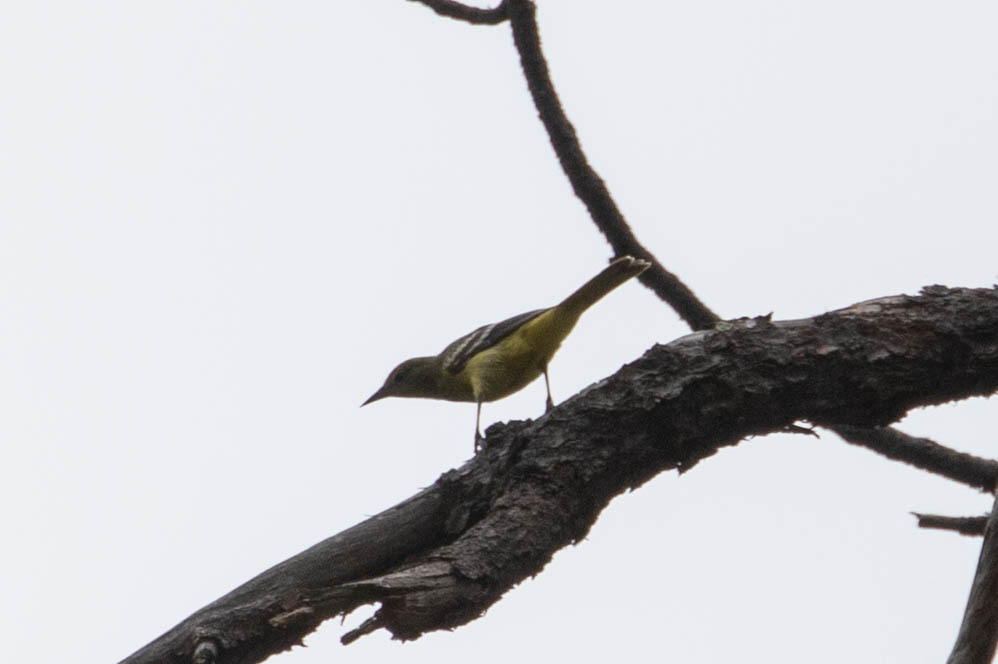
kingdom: Animalia
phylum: Chordata
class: Aves
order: Passeriformes
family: Icteridae
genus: Icterus
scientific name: Icterus parisorum
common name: Scott's oriole
